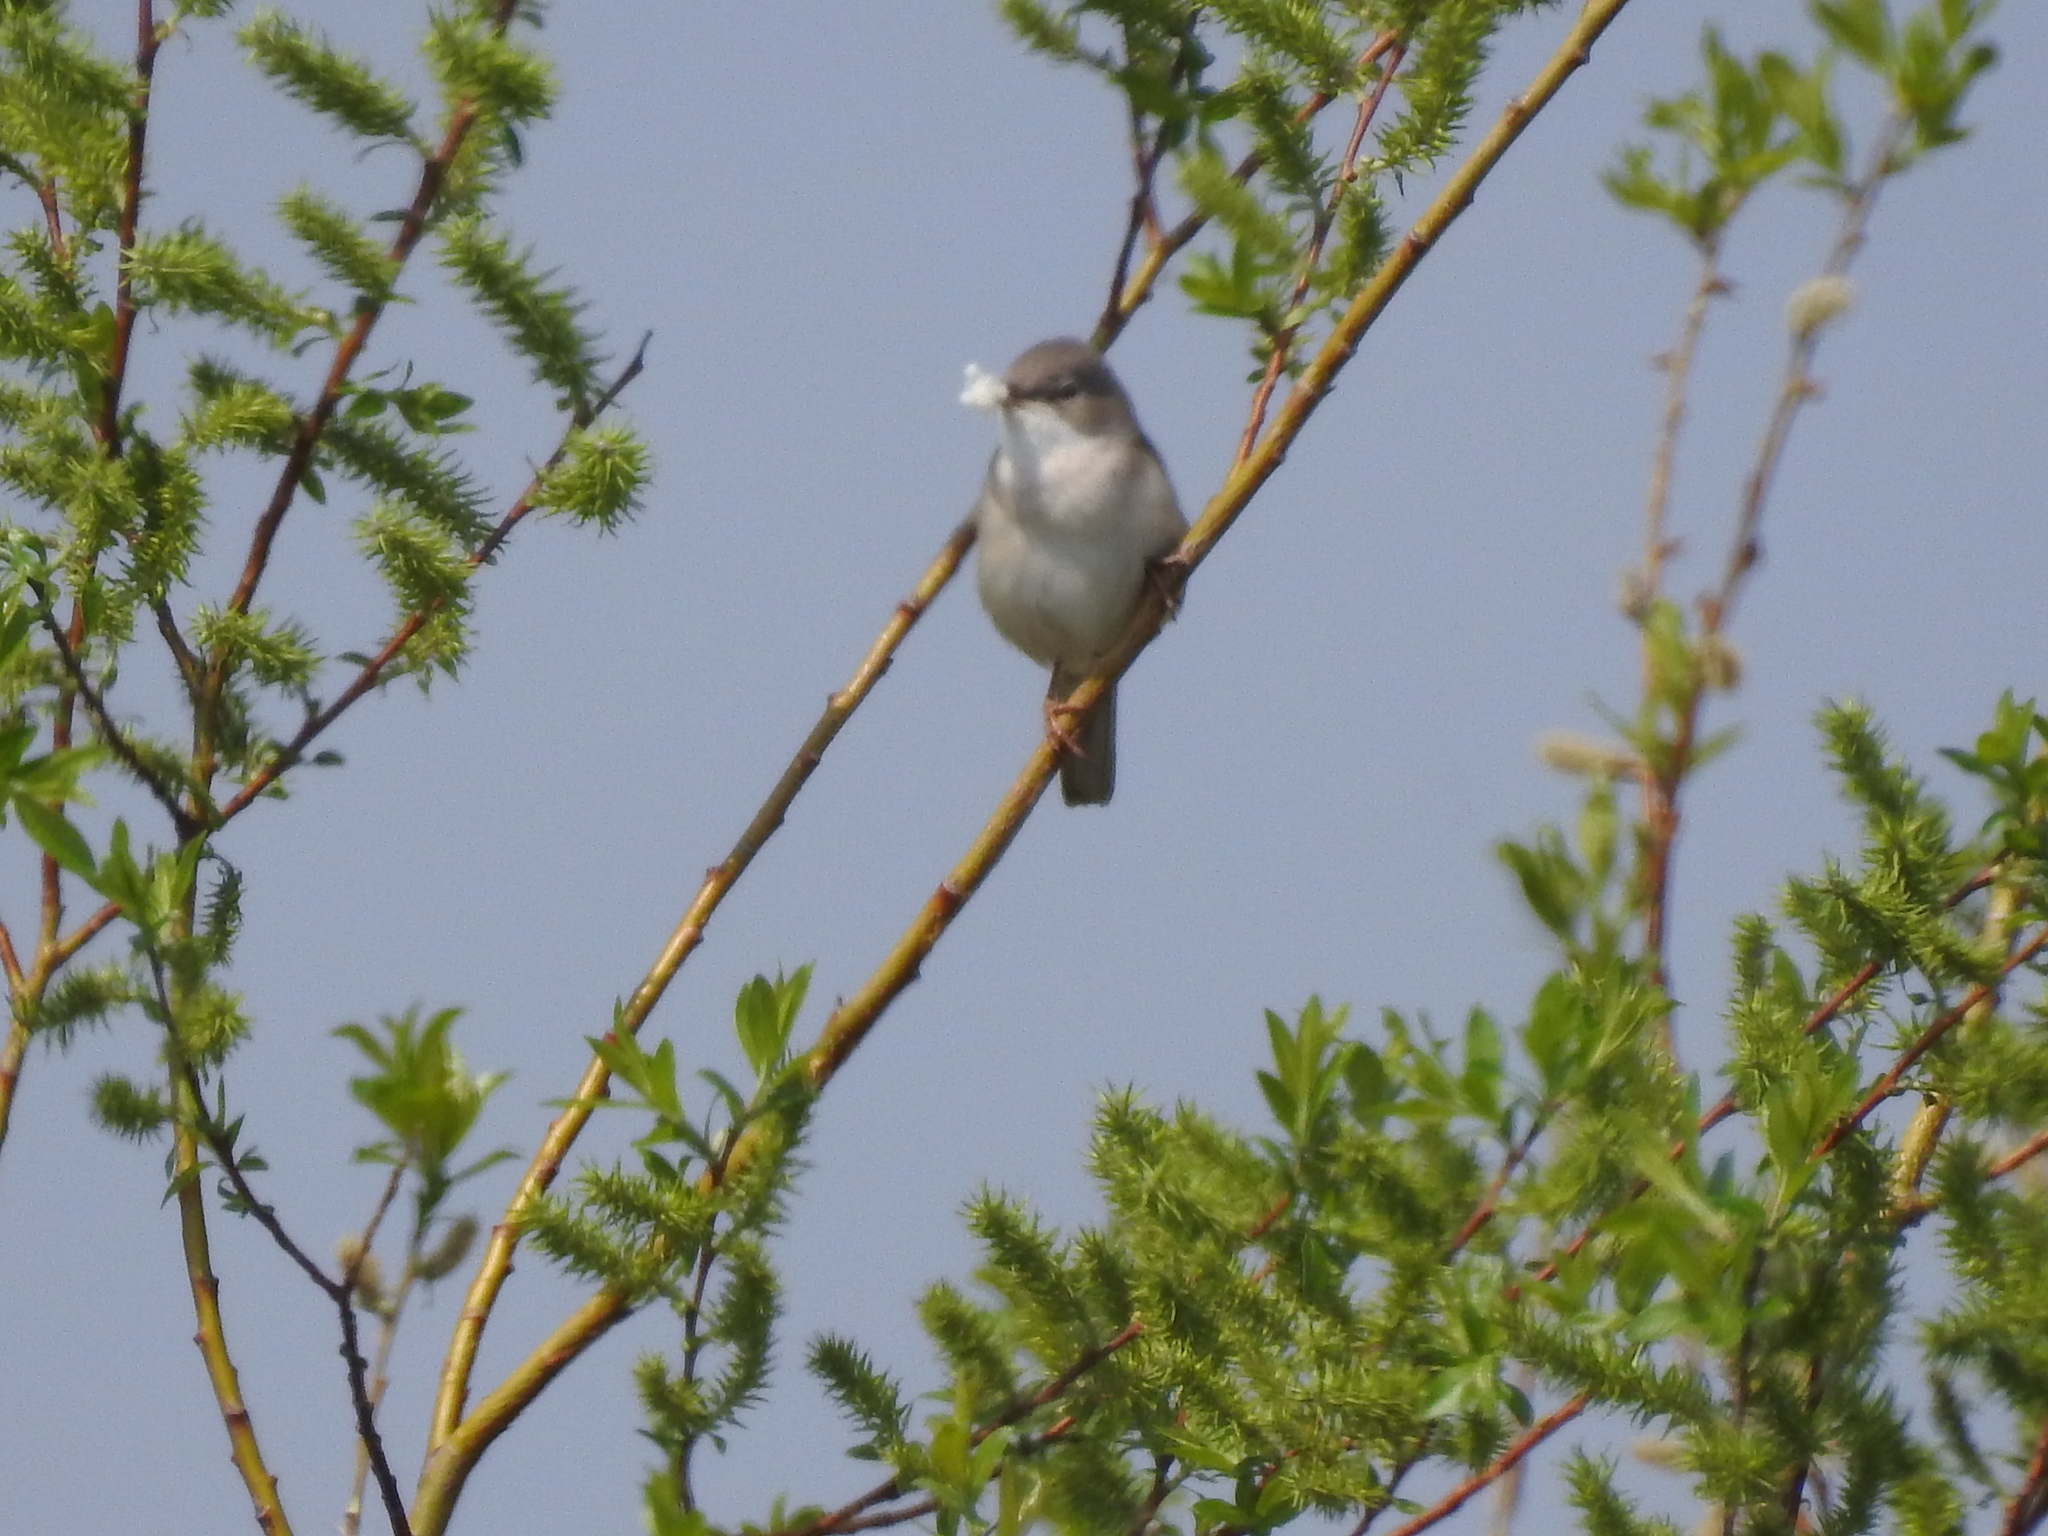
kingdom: Animalia
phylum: Chordata
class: Aves
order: Passeriformes
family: Sylviidae
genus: Sylvia
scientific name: Sylvia communis
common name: Common whitethroat
